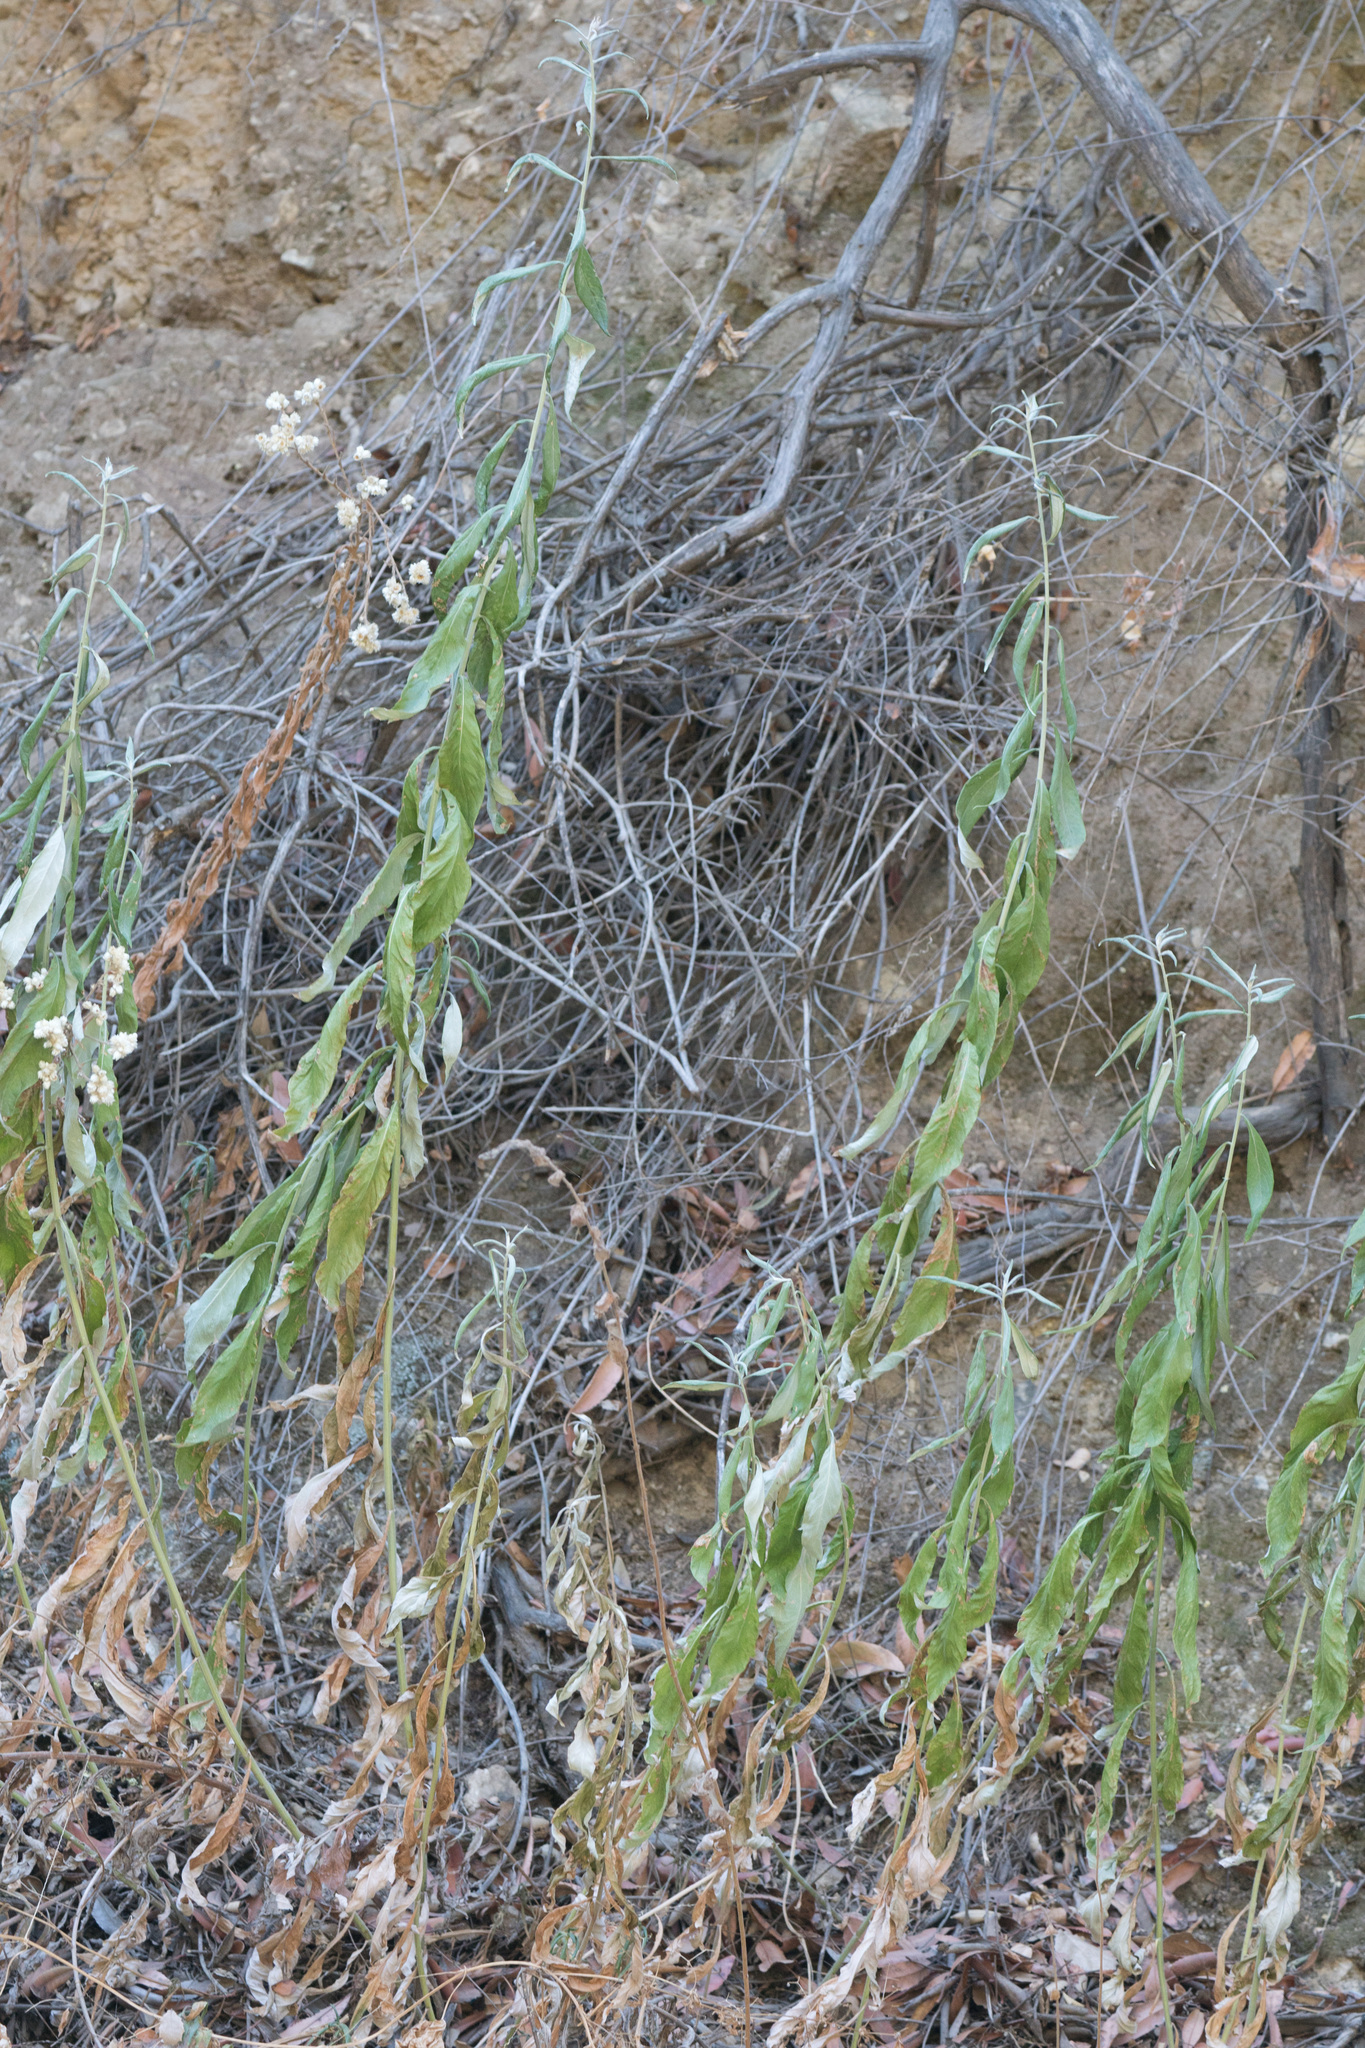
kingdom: Plantae
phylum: Tracheophyta
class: Magnoliopsida
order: Asterales
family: Asteraceae
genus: Artemisia
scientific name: Artemisia douglasiana
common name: Northwest mugwort
